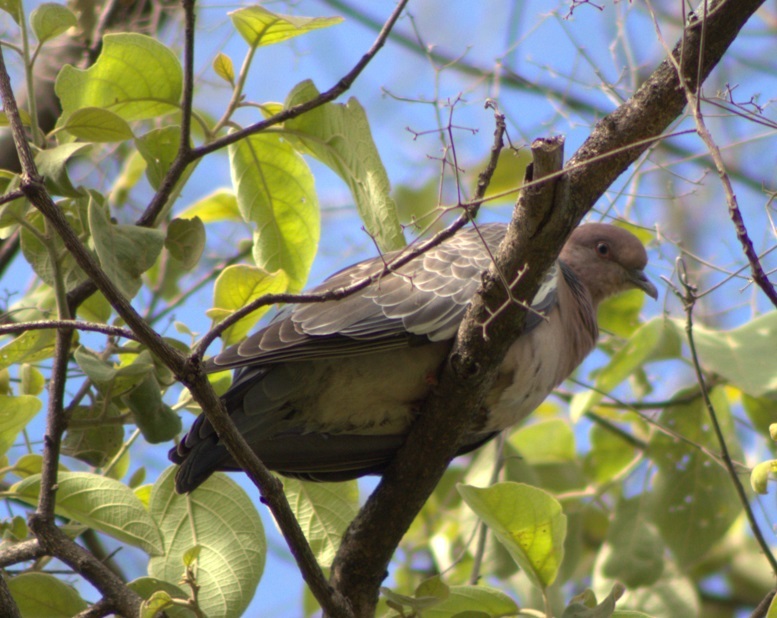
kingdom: Animalia
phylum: Chordata
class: Aves
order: Columbiformes
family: Columbidae
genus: Patagioenas
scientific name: Patagioenas picazuro
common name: Picazuro pigeon
